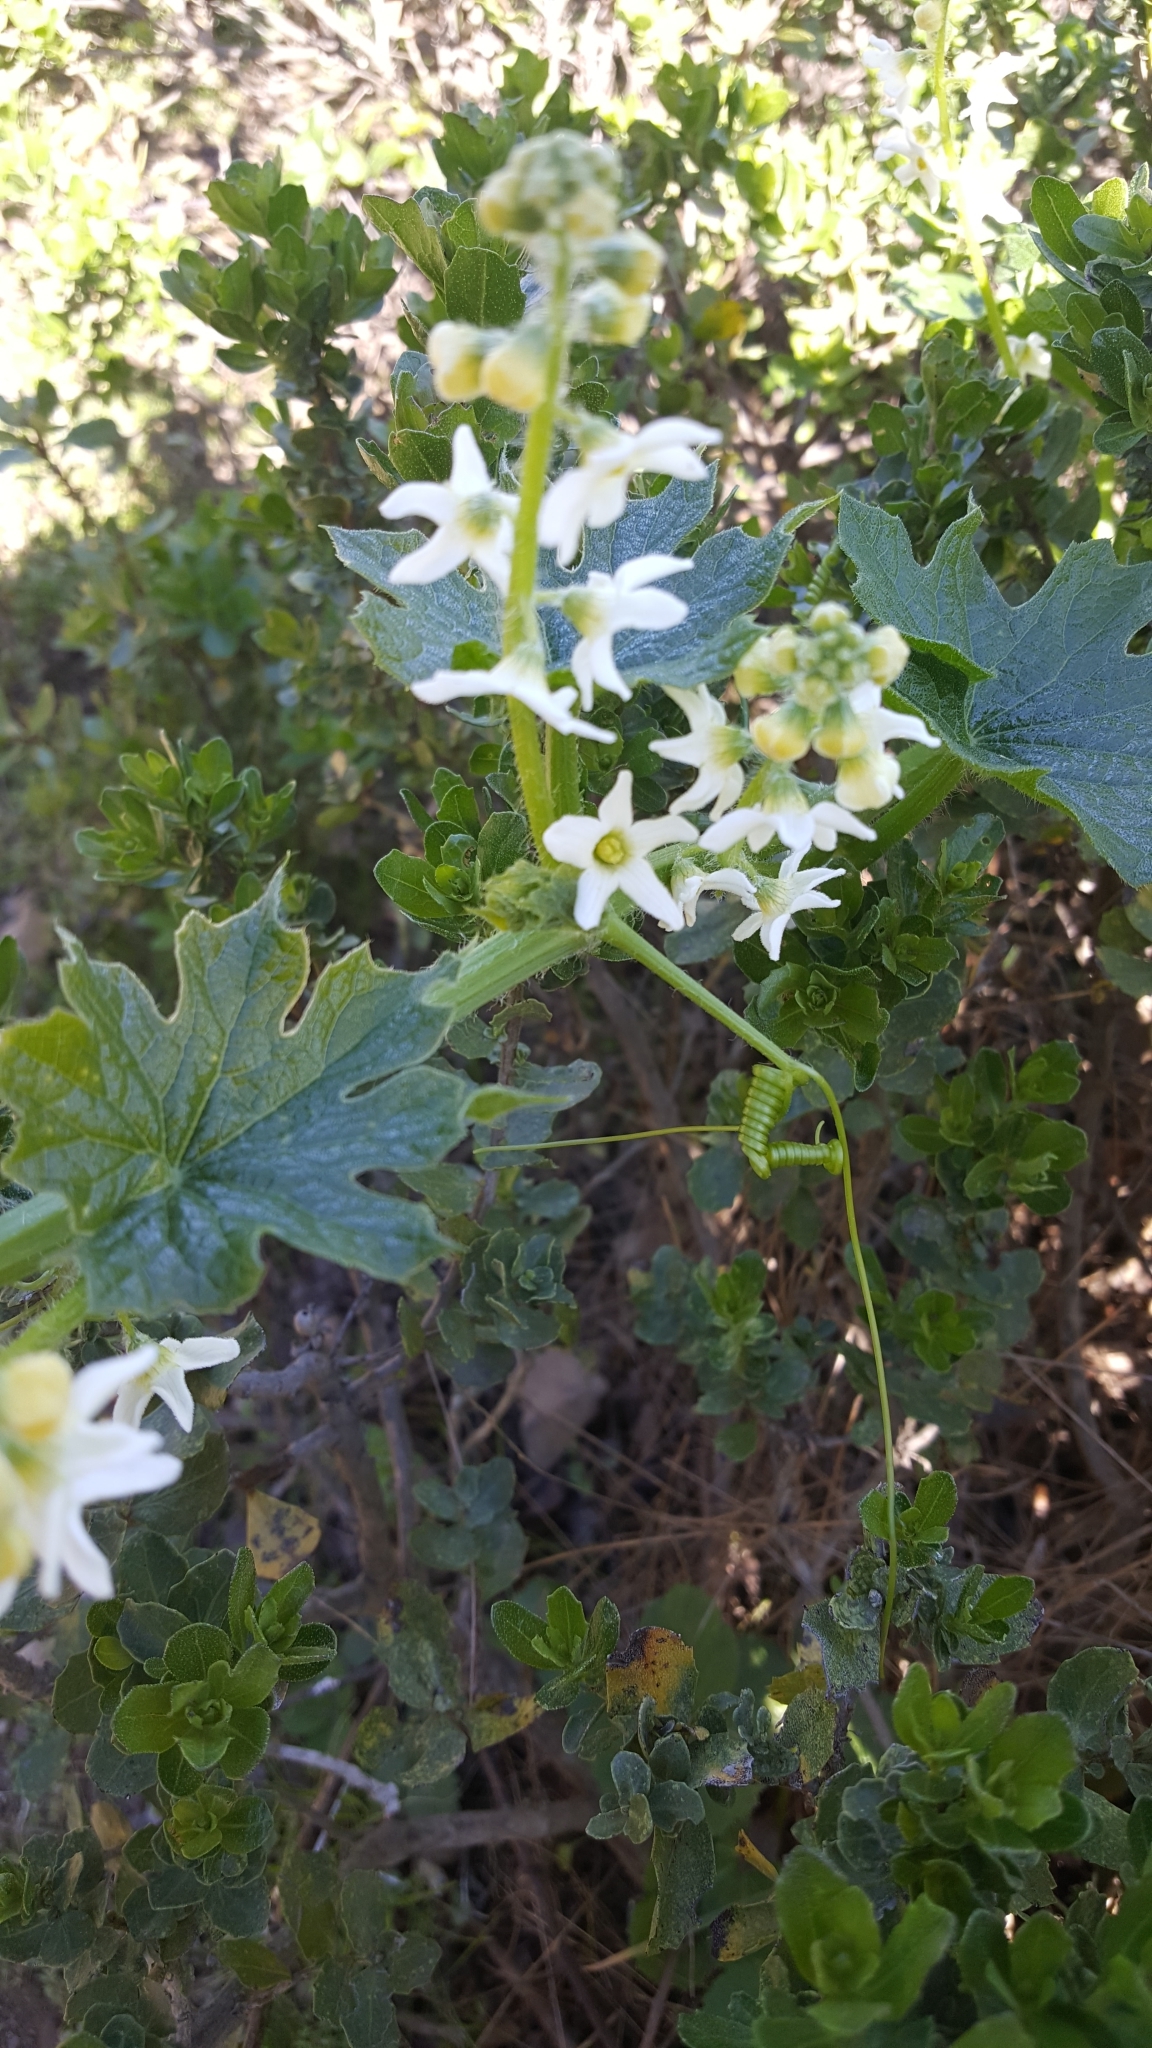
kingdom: Plantae
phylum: Tracheophyta
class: Magnoliopsida
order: Cucurbitales
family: Cucurbitaceae
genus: Marah
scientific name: Marah oregana
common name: Coastal manroot
